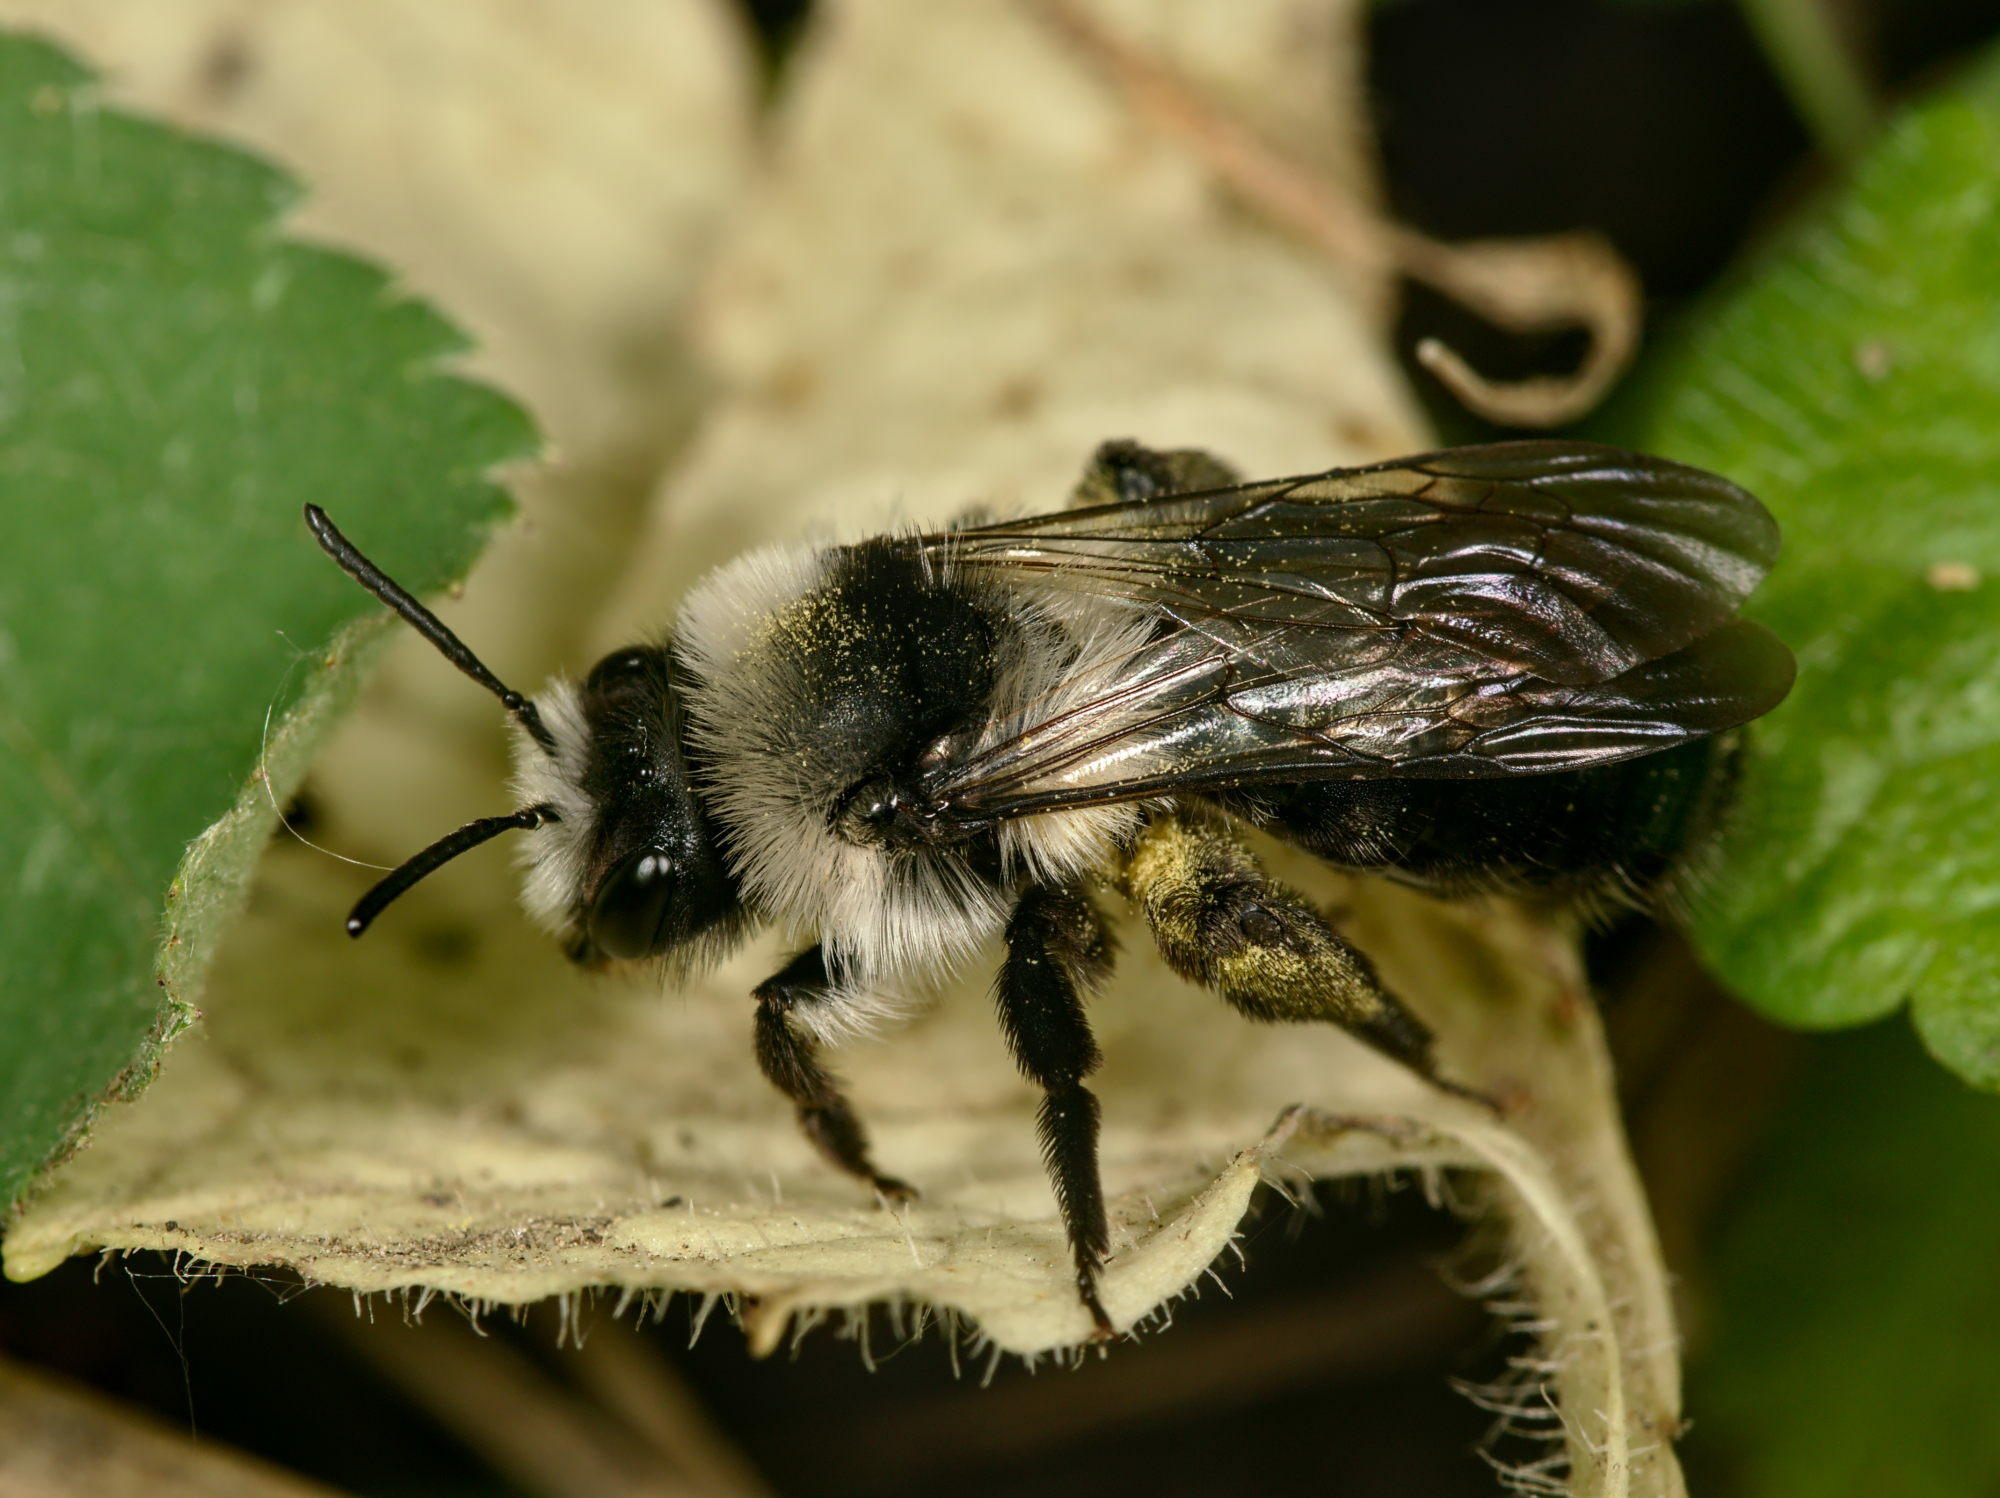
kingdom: Animalia
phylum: Arthropoda
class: Insecta
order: Hymenoptera
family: Andrenidae
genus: Andrena
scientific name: Andrena cineraria
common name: Ashy mining bee
